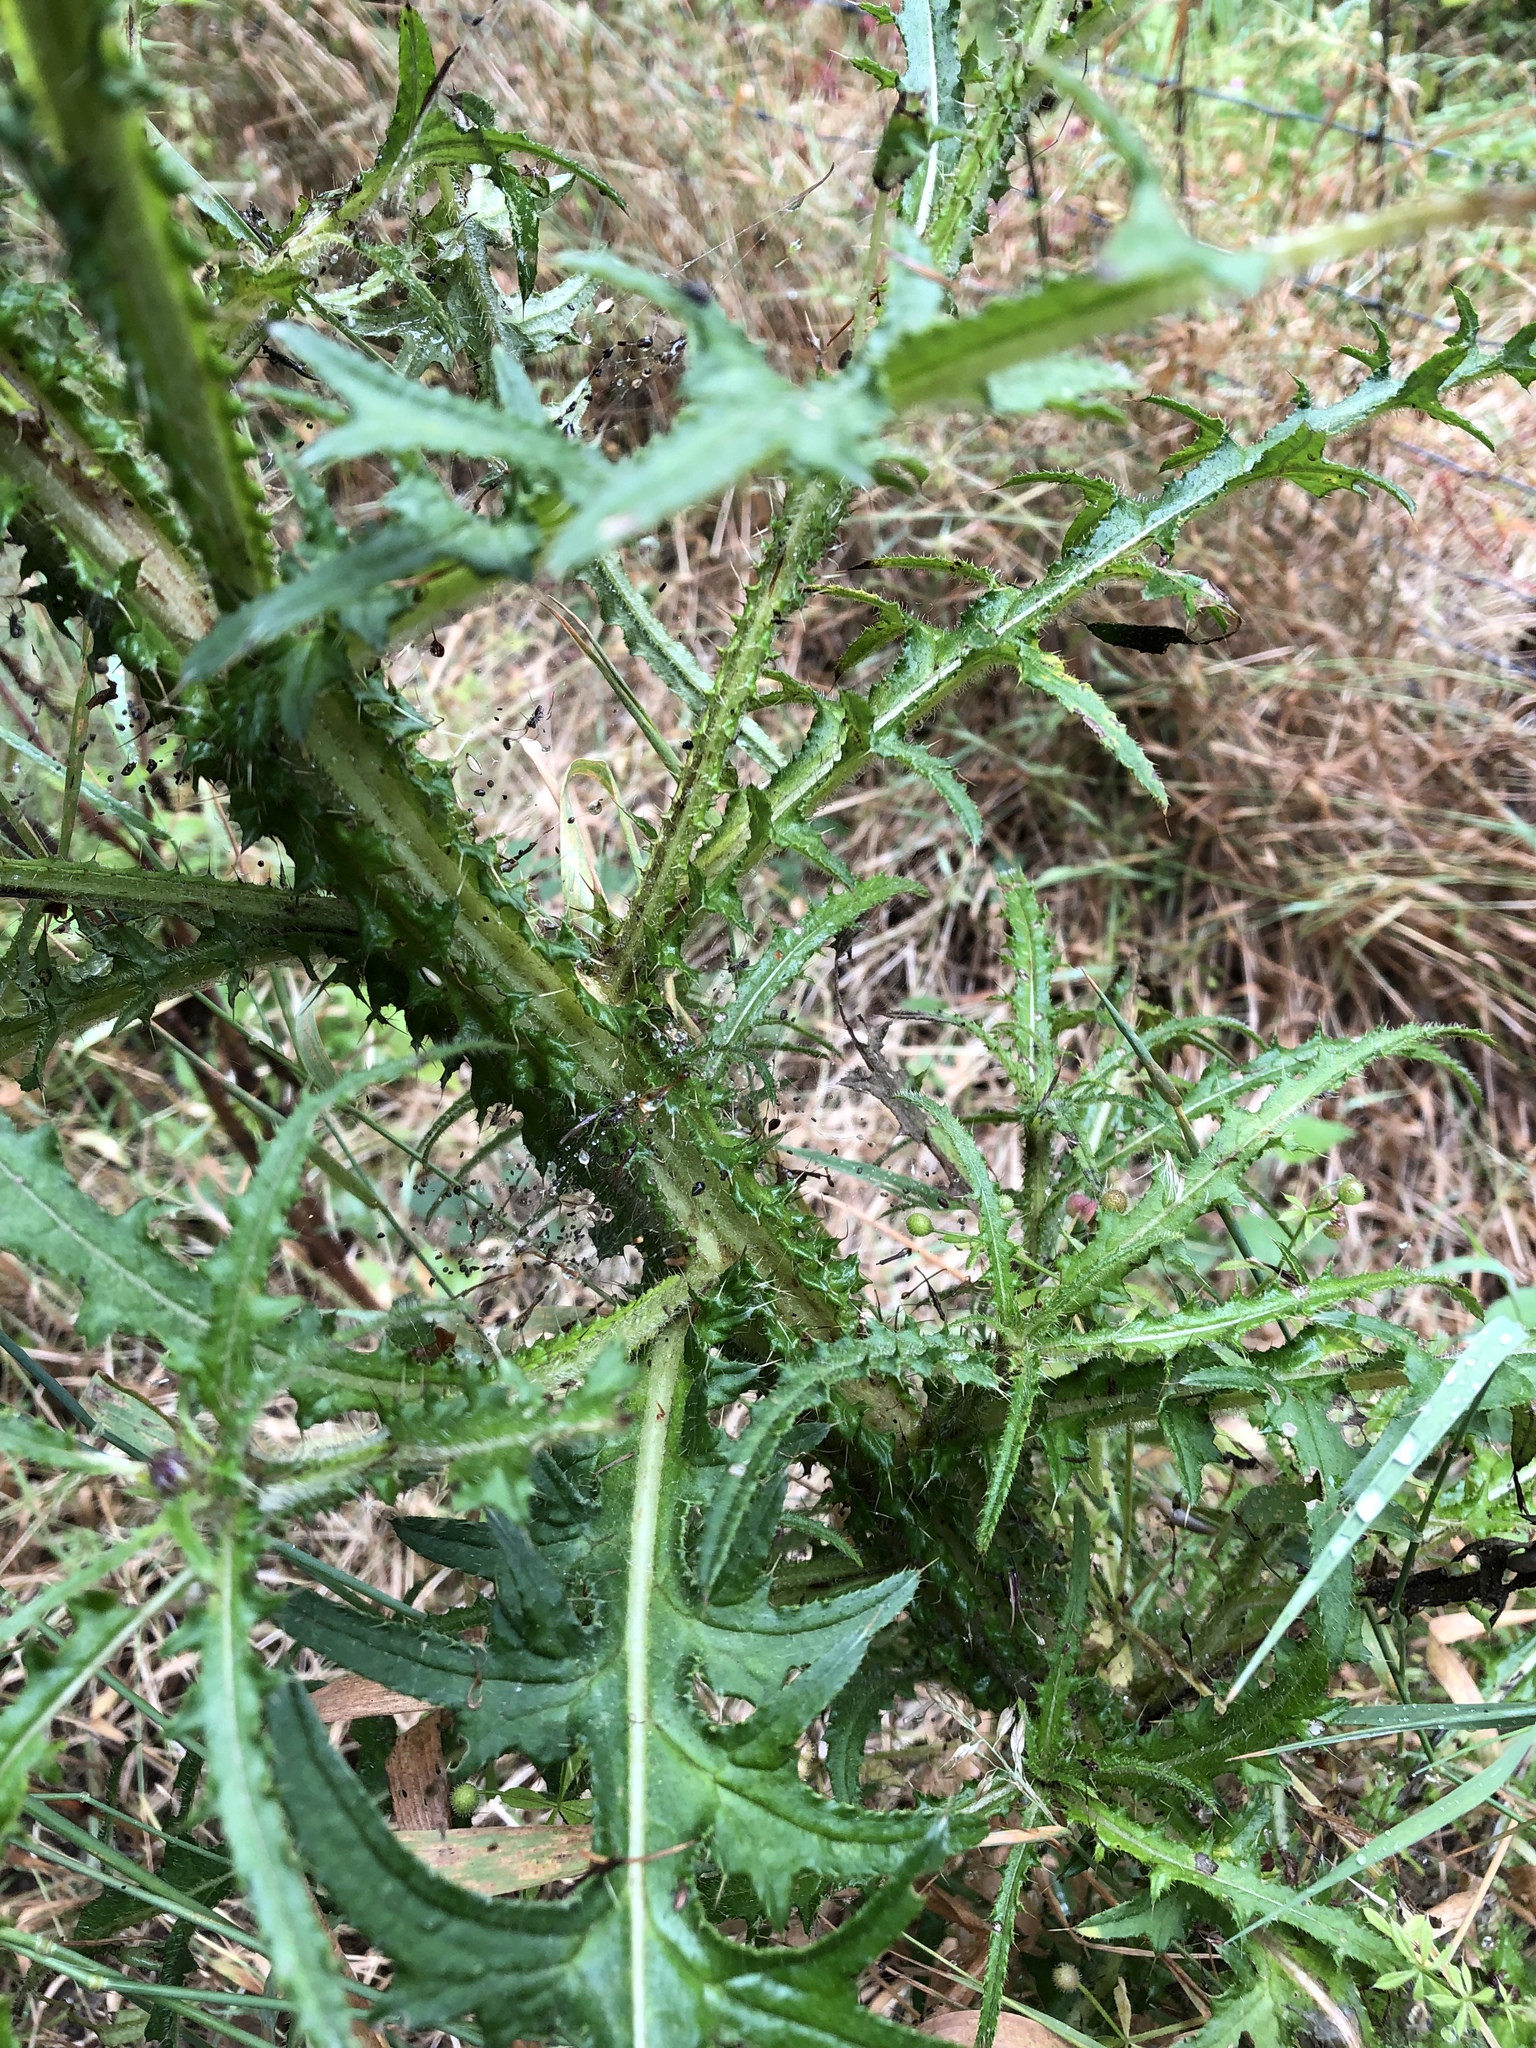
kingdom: Plantae
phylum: Tracheophyta
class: Magnoliopsida
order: Asterales
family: Asteraceae
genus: Cirsium
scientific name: Cirsium palustre
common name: Marsh thistle
